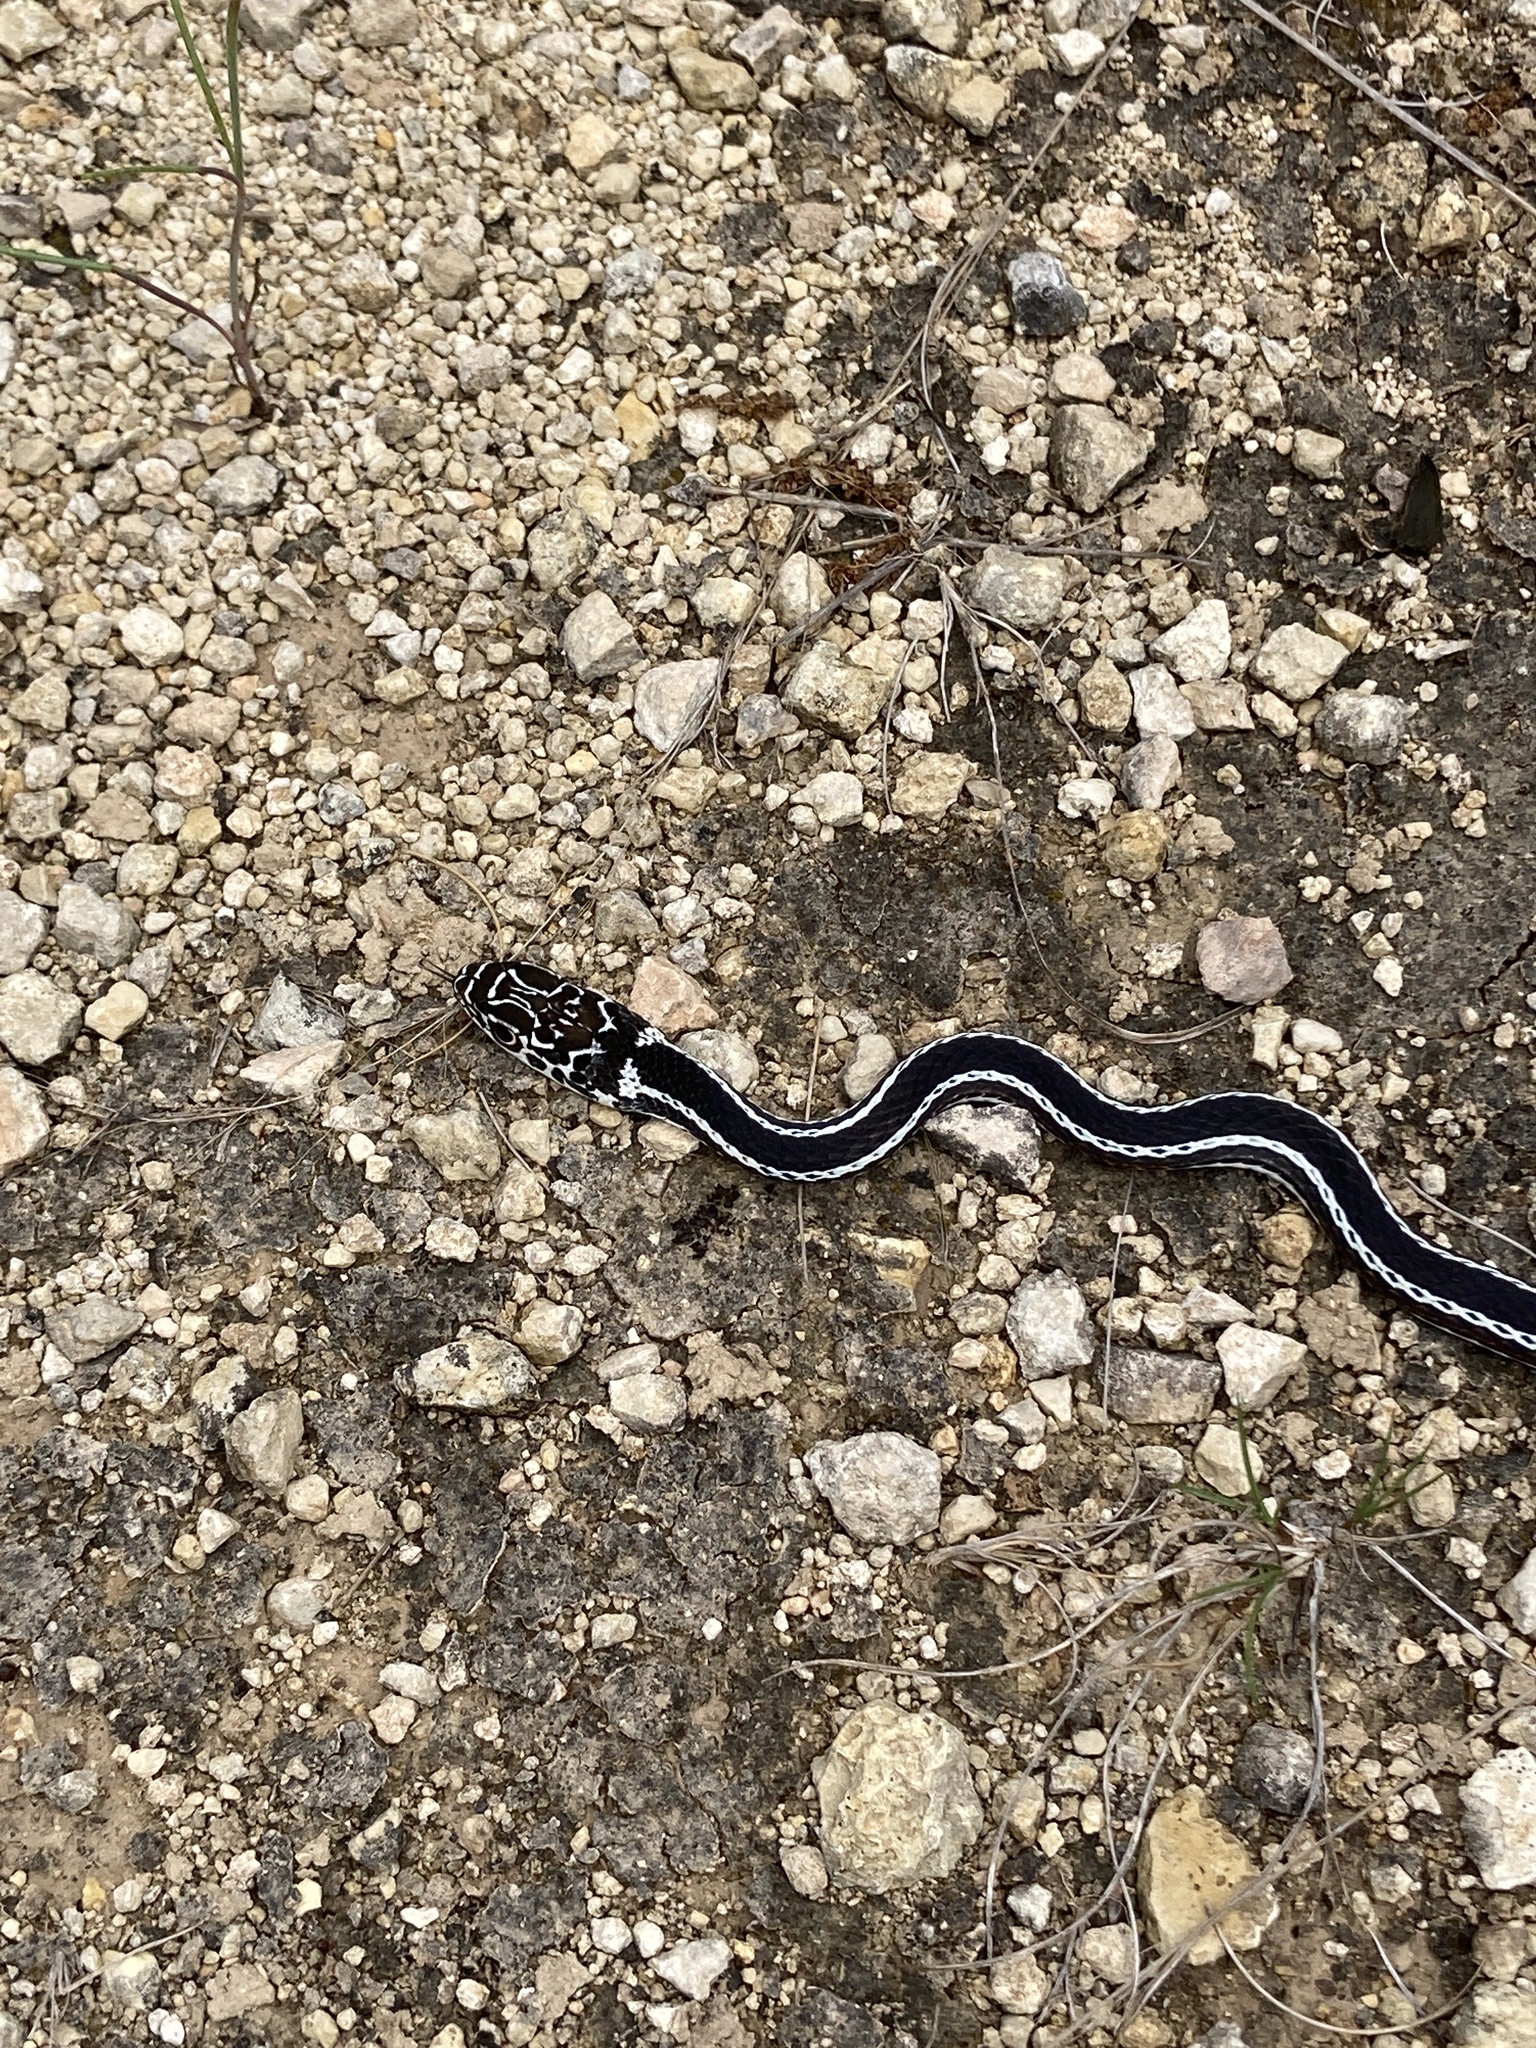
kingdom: Animalia
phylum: Chordata
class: Squamata
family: Colubridae
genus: Masticophis
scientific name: Masticophis taeniatus
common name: Striped whipsnake
